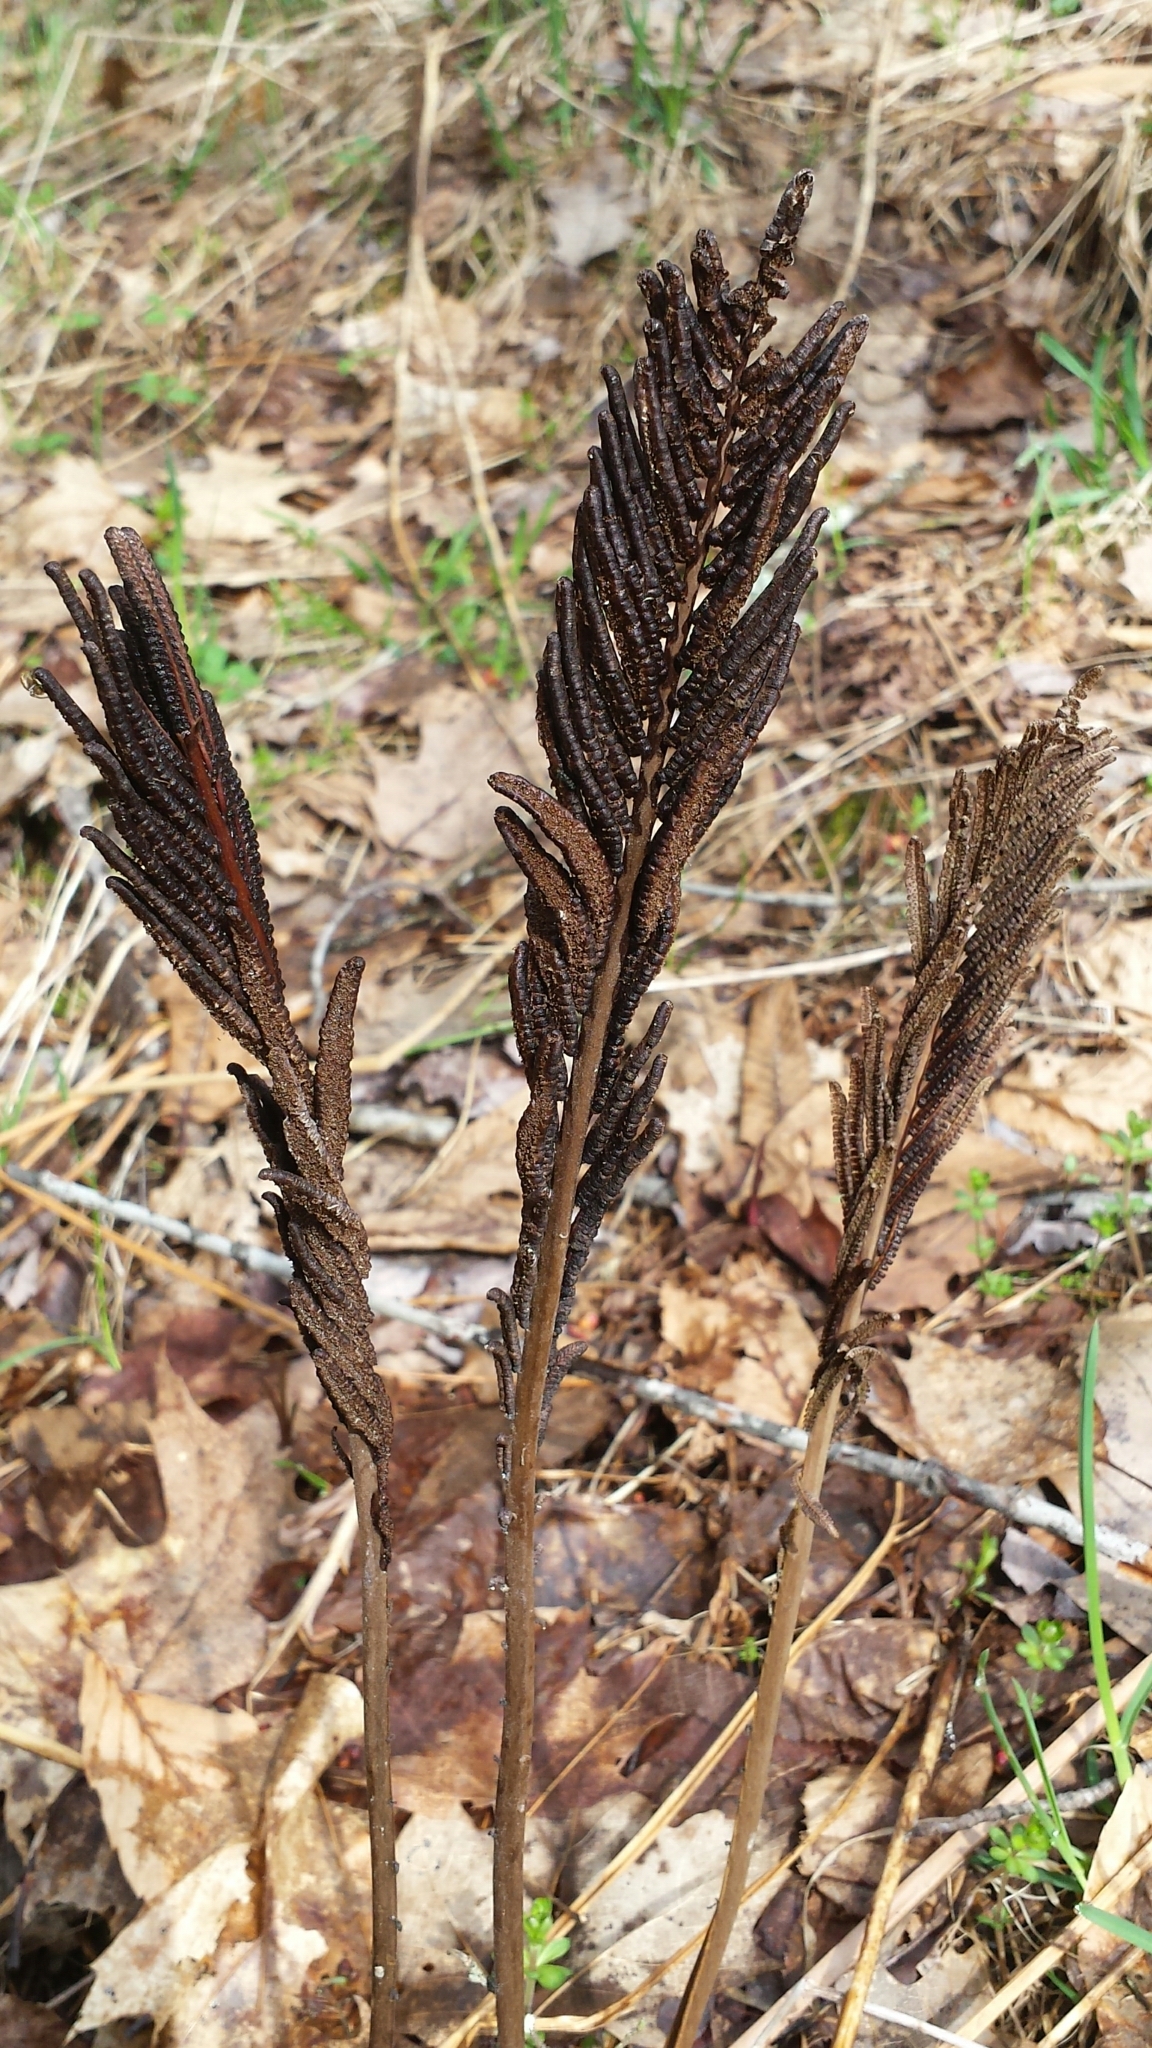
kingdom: Plantae
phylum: Tracheophyta
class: Polypodiopsida
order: Polypodiales
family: Onocleaceae
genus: Matteuccia
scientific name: Matteuccia struthiopteris
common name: Ostrich fern
